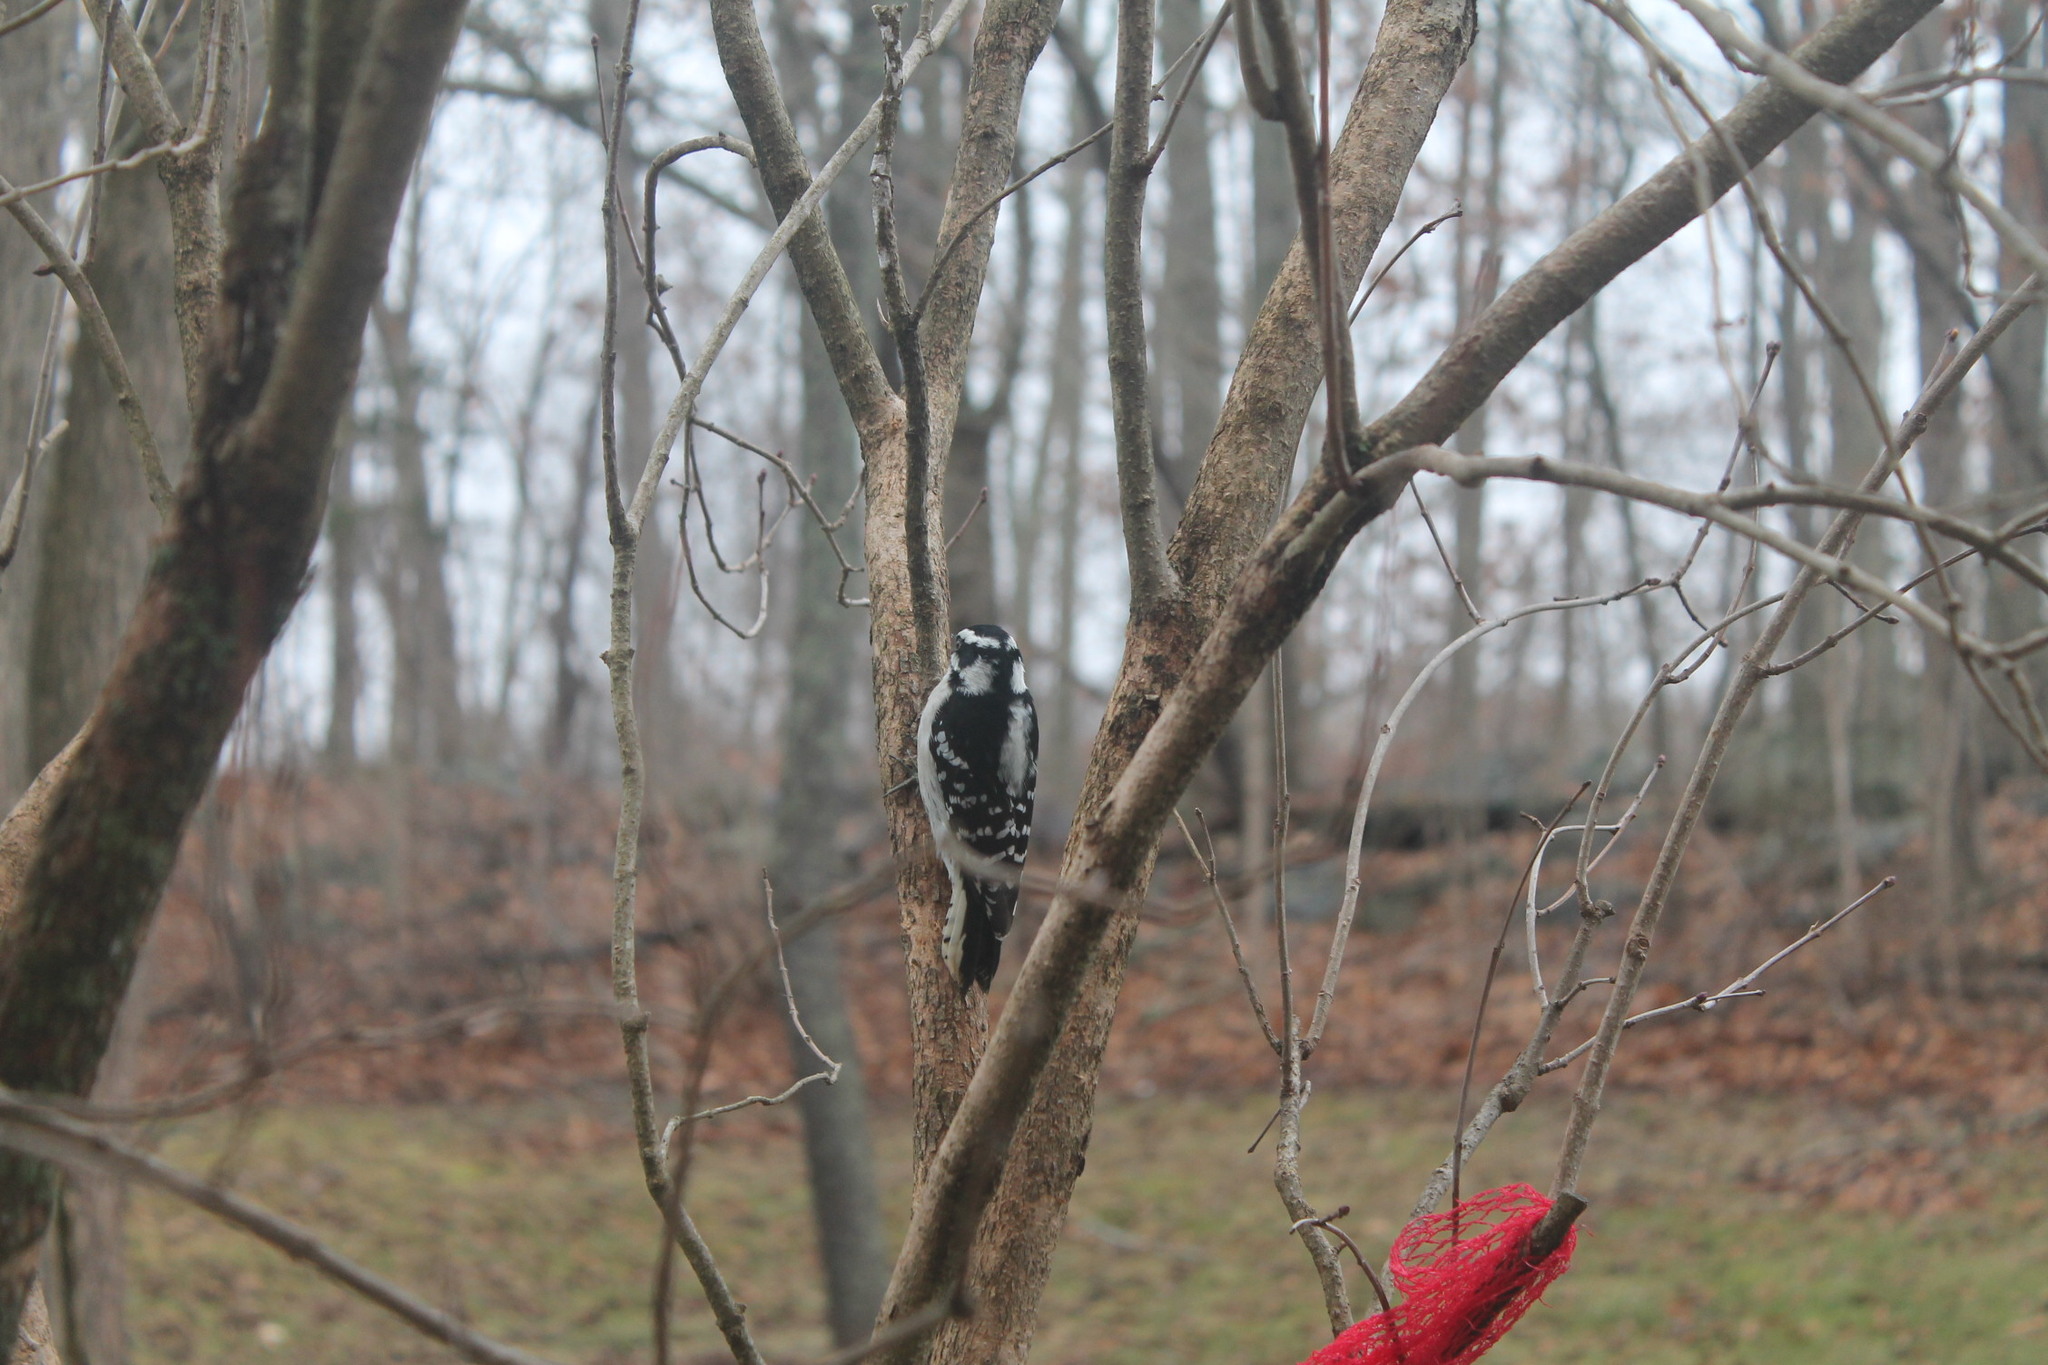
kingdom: Animalia
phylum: Chordata
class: Aves
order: Piciformes
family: Picidae
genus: Dryobates
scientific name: Dryobates pubescens
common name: Downy woodpecker
